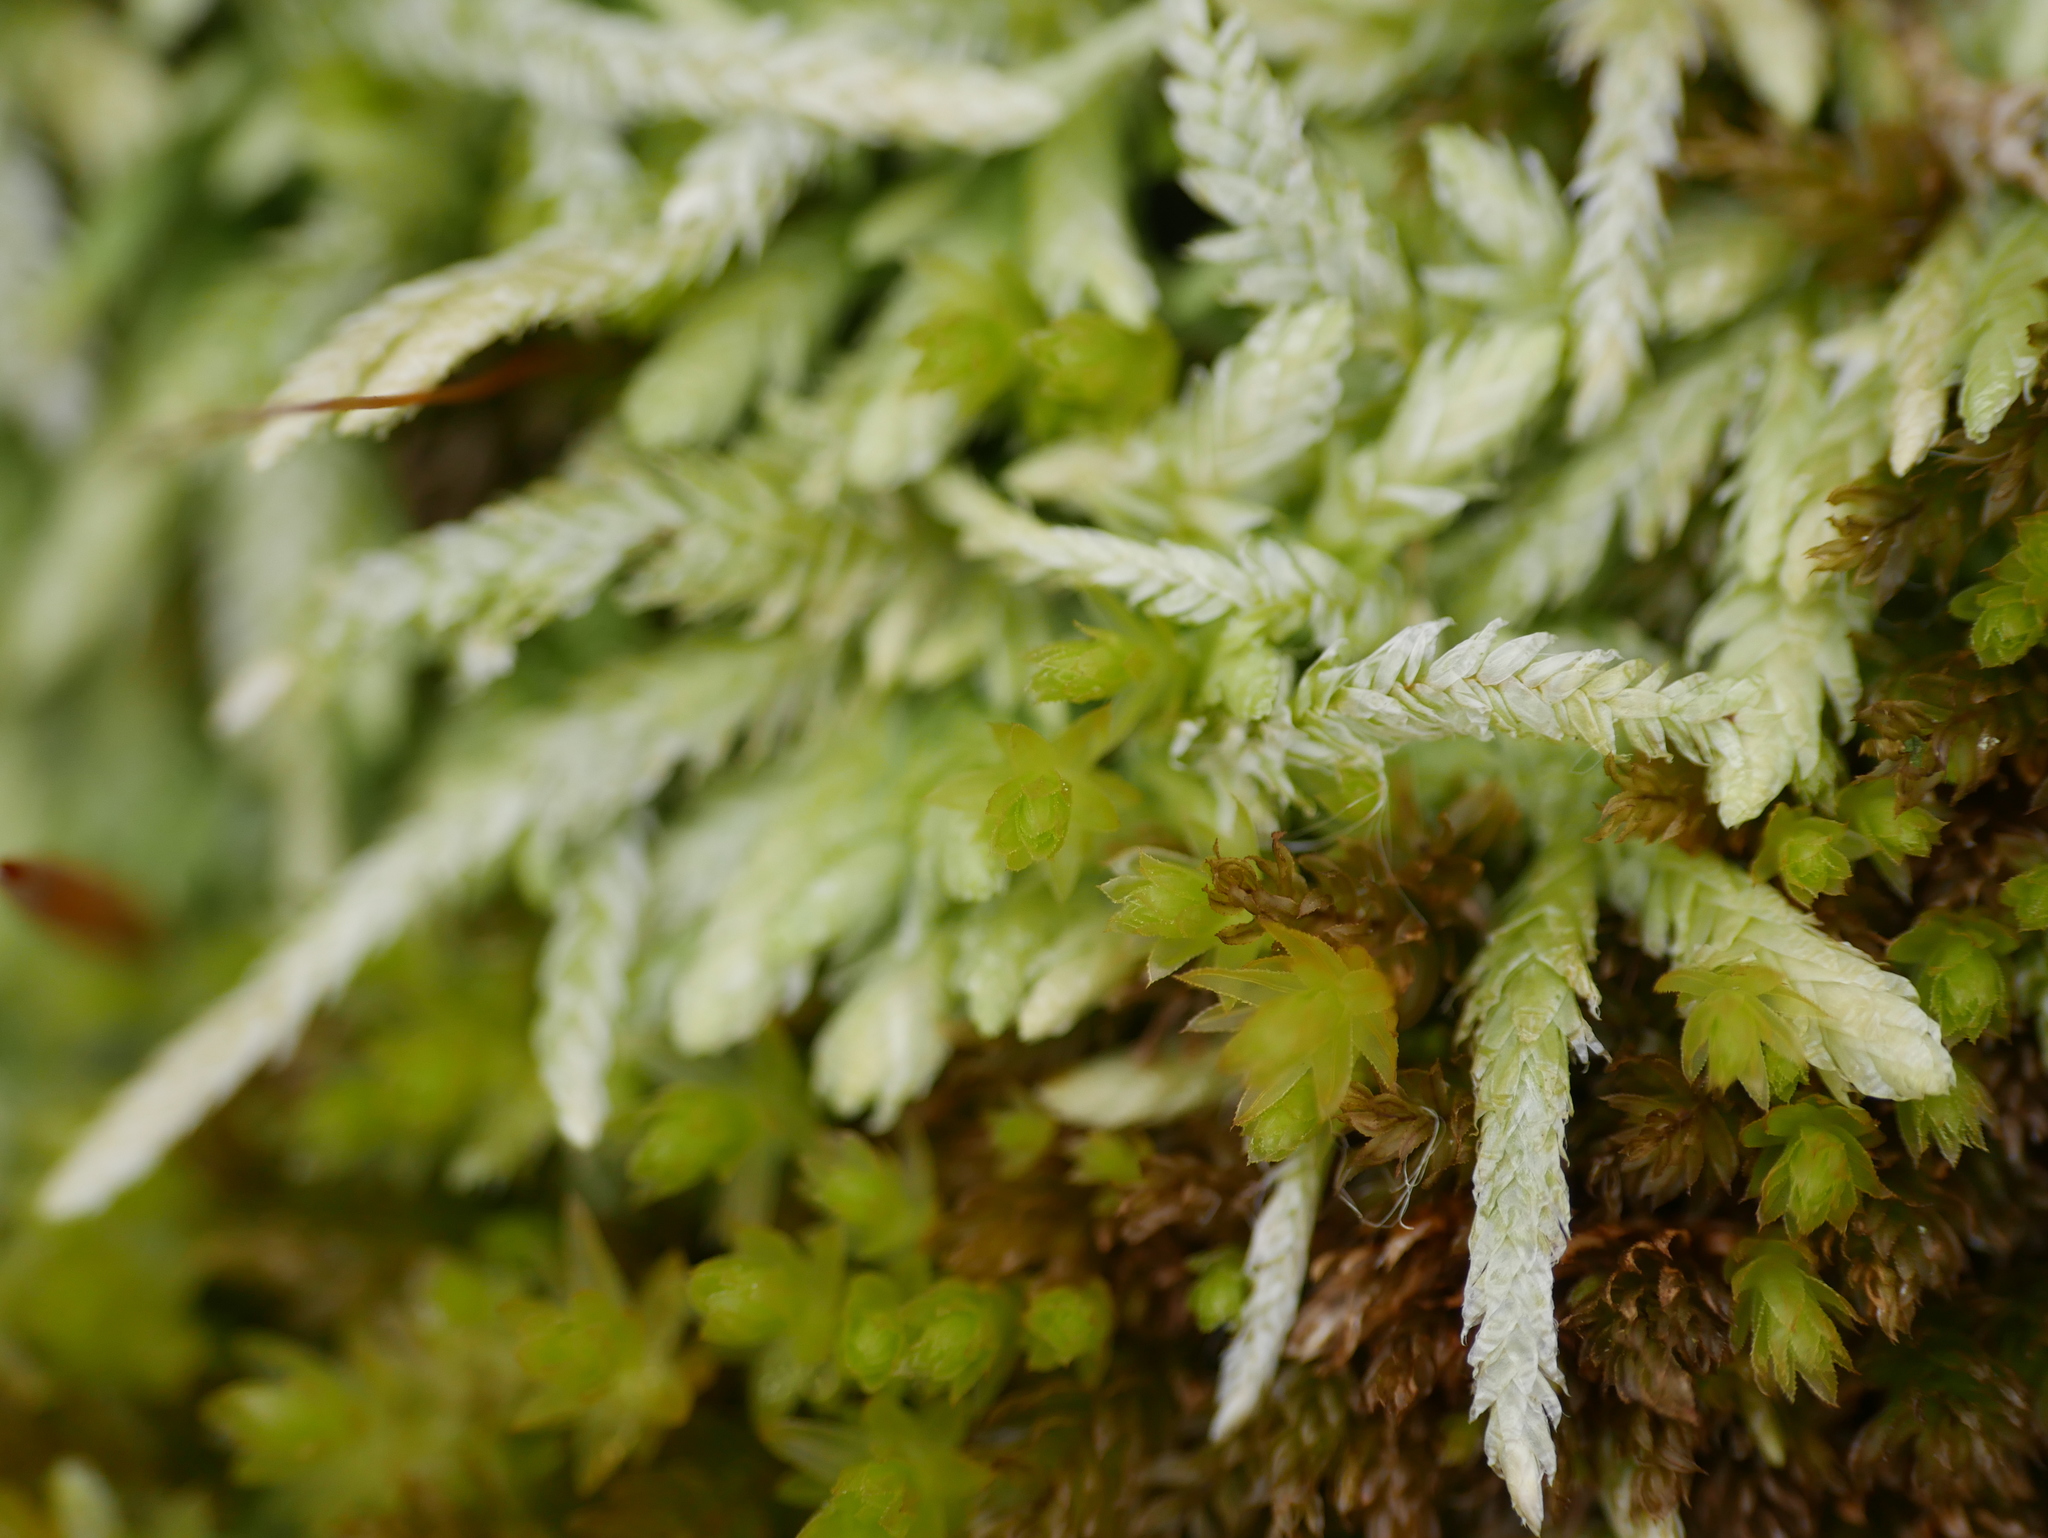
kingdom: Plantae
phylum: Bryophyta
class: Bryopsida
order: Hypnales
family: Plagiotheciaceae
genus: Plagiothecium
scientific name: Plagiothecium undulatum
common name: Waved silk-moss
